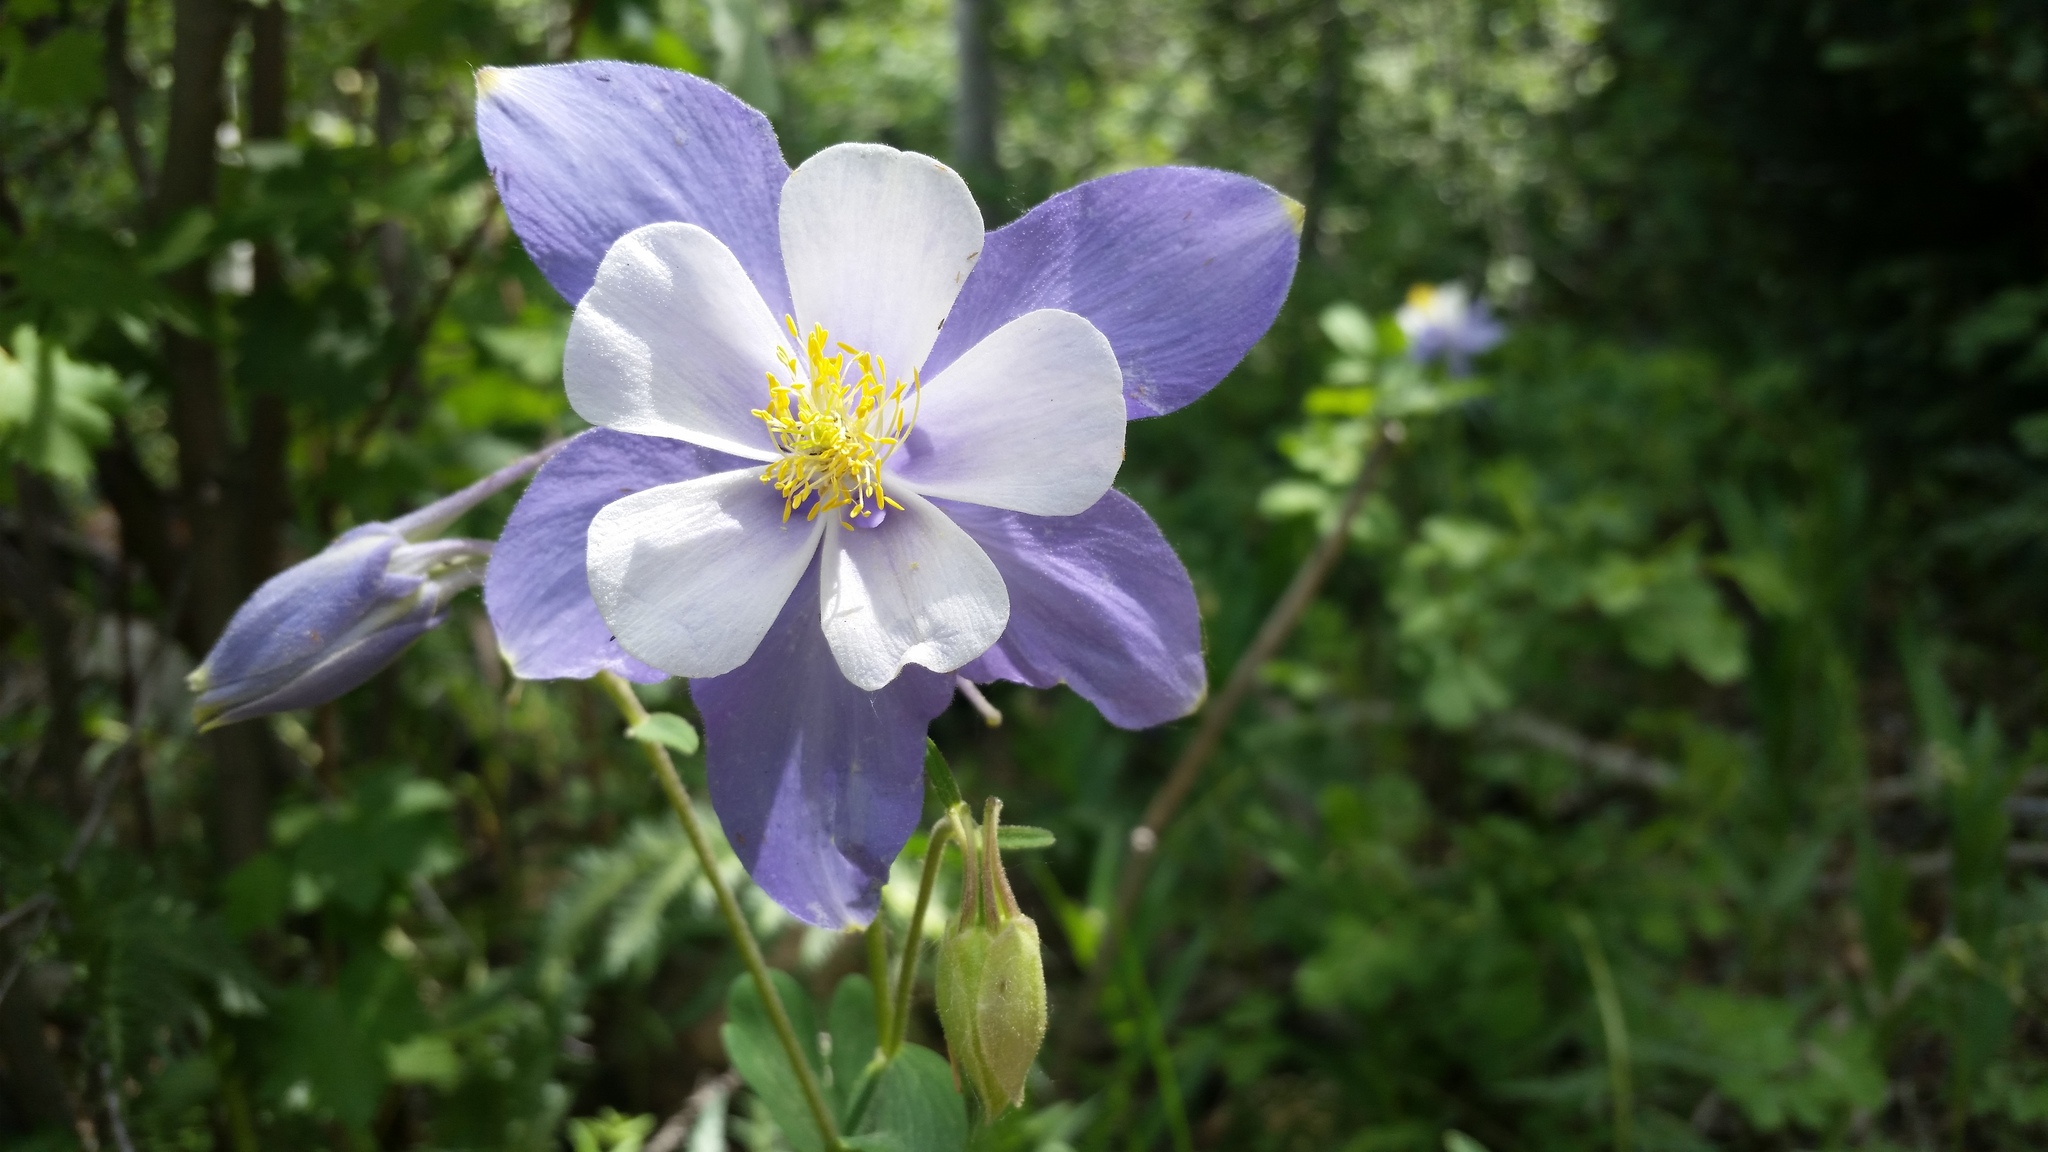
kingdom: Plantae
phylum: Tracheophyta
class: Magnoliopsida
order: Ranunculales
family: Ranunculaceae
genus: Aquilegia
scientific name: Aquilegia coerulea
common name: Rocky mountain columbine
